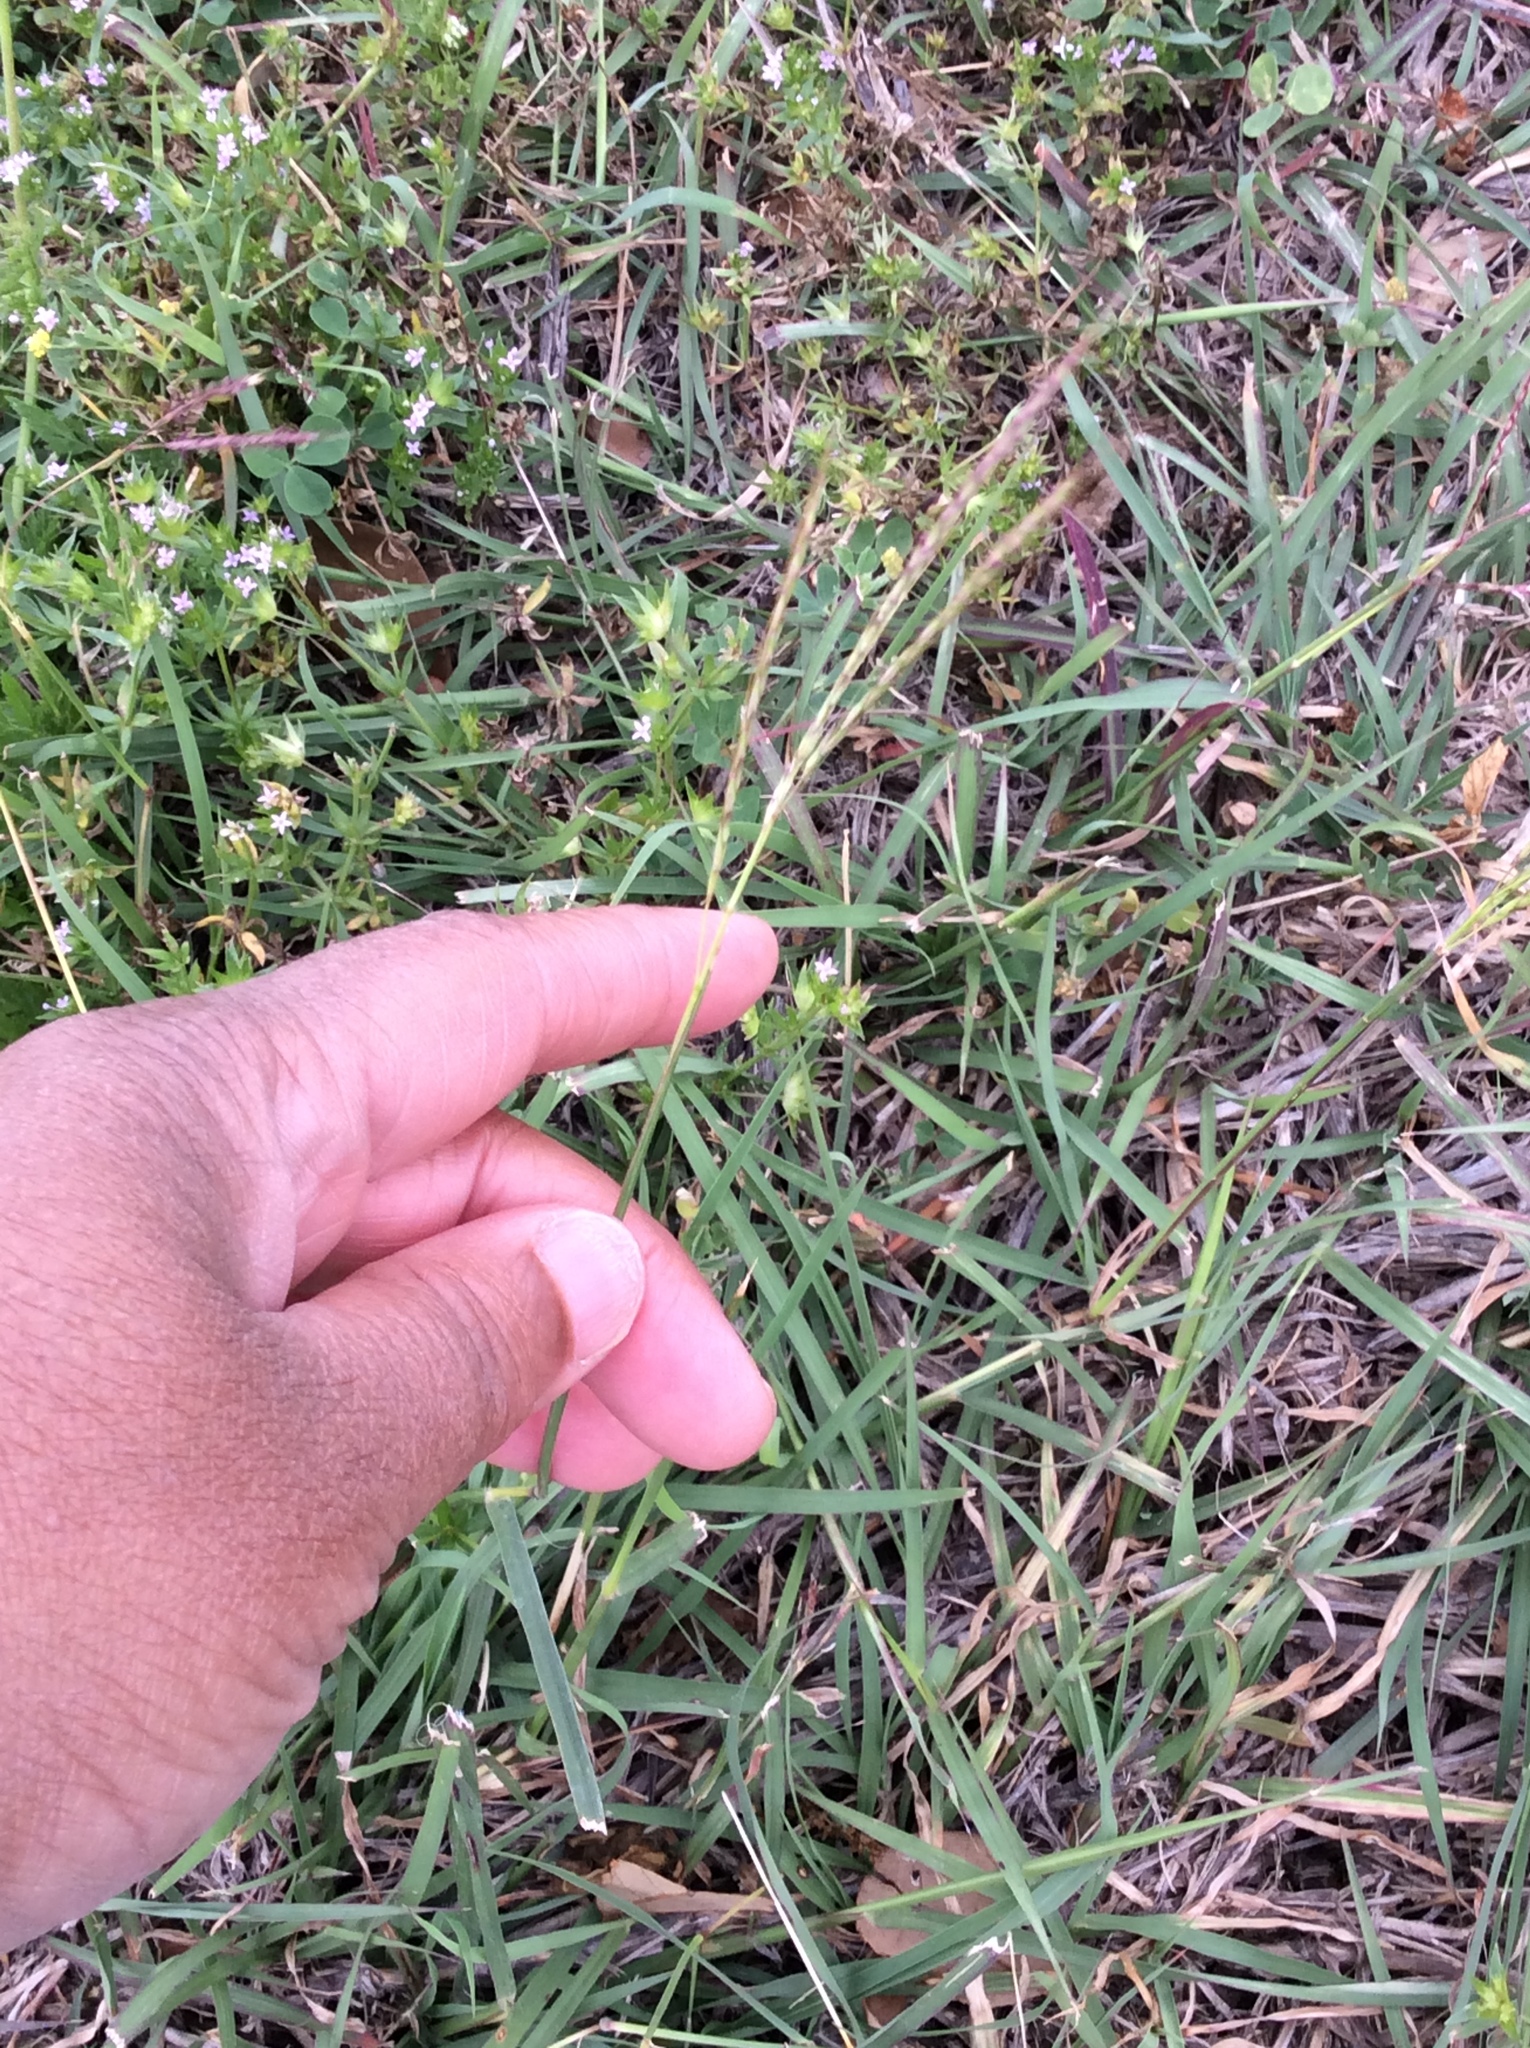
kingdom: Plantae
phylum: Tracheophyta
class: Liliopsida
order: Poales
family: Poaceae
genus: Bothriochloa
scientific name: Bothriochloa ischaemum
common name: Yellow bluestem
